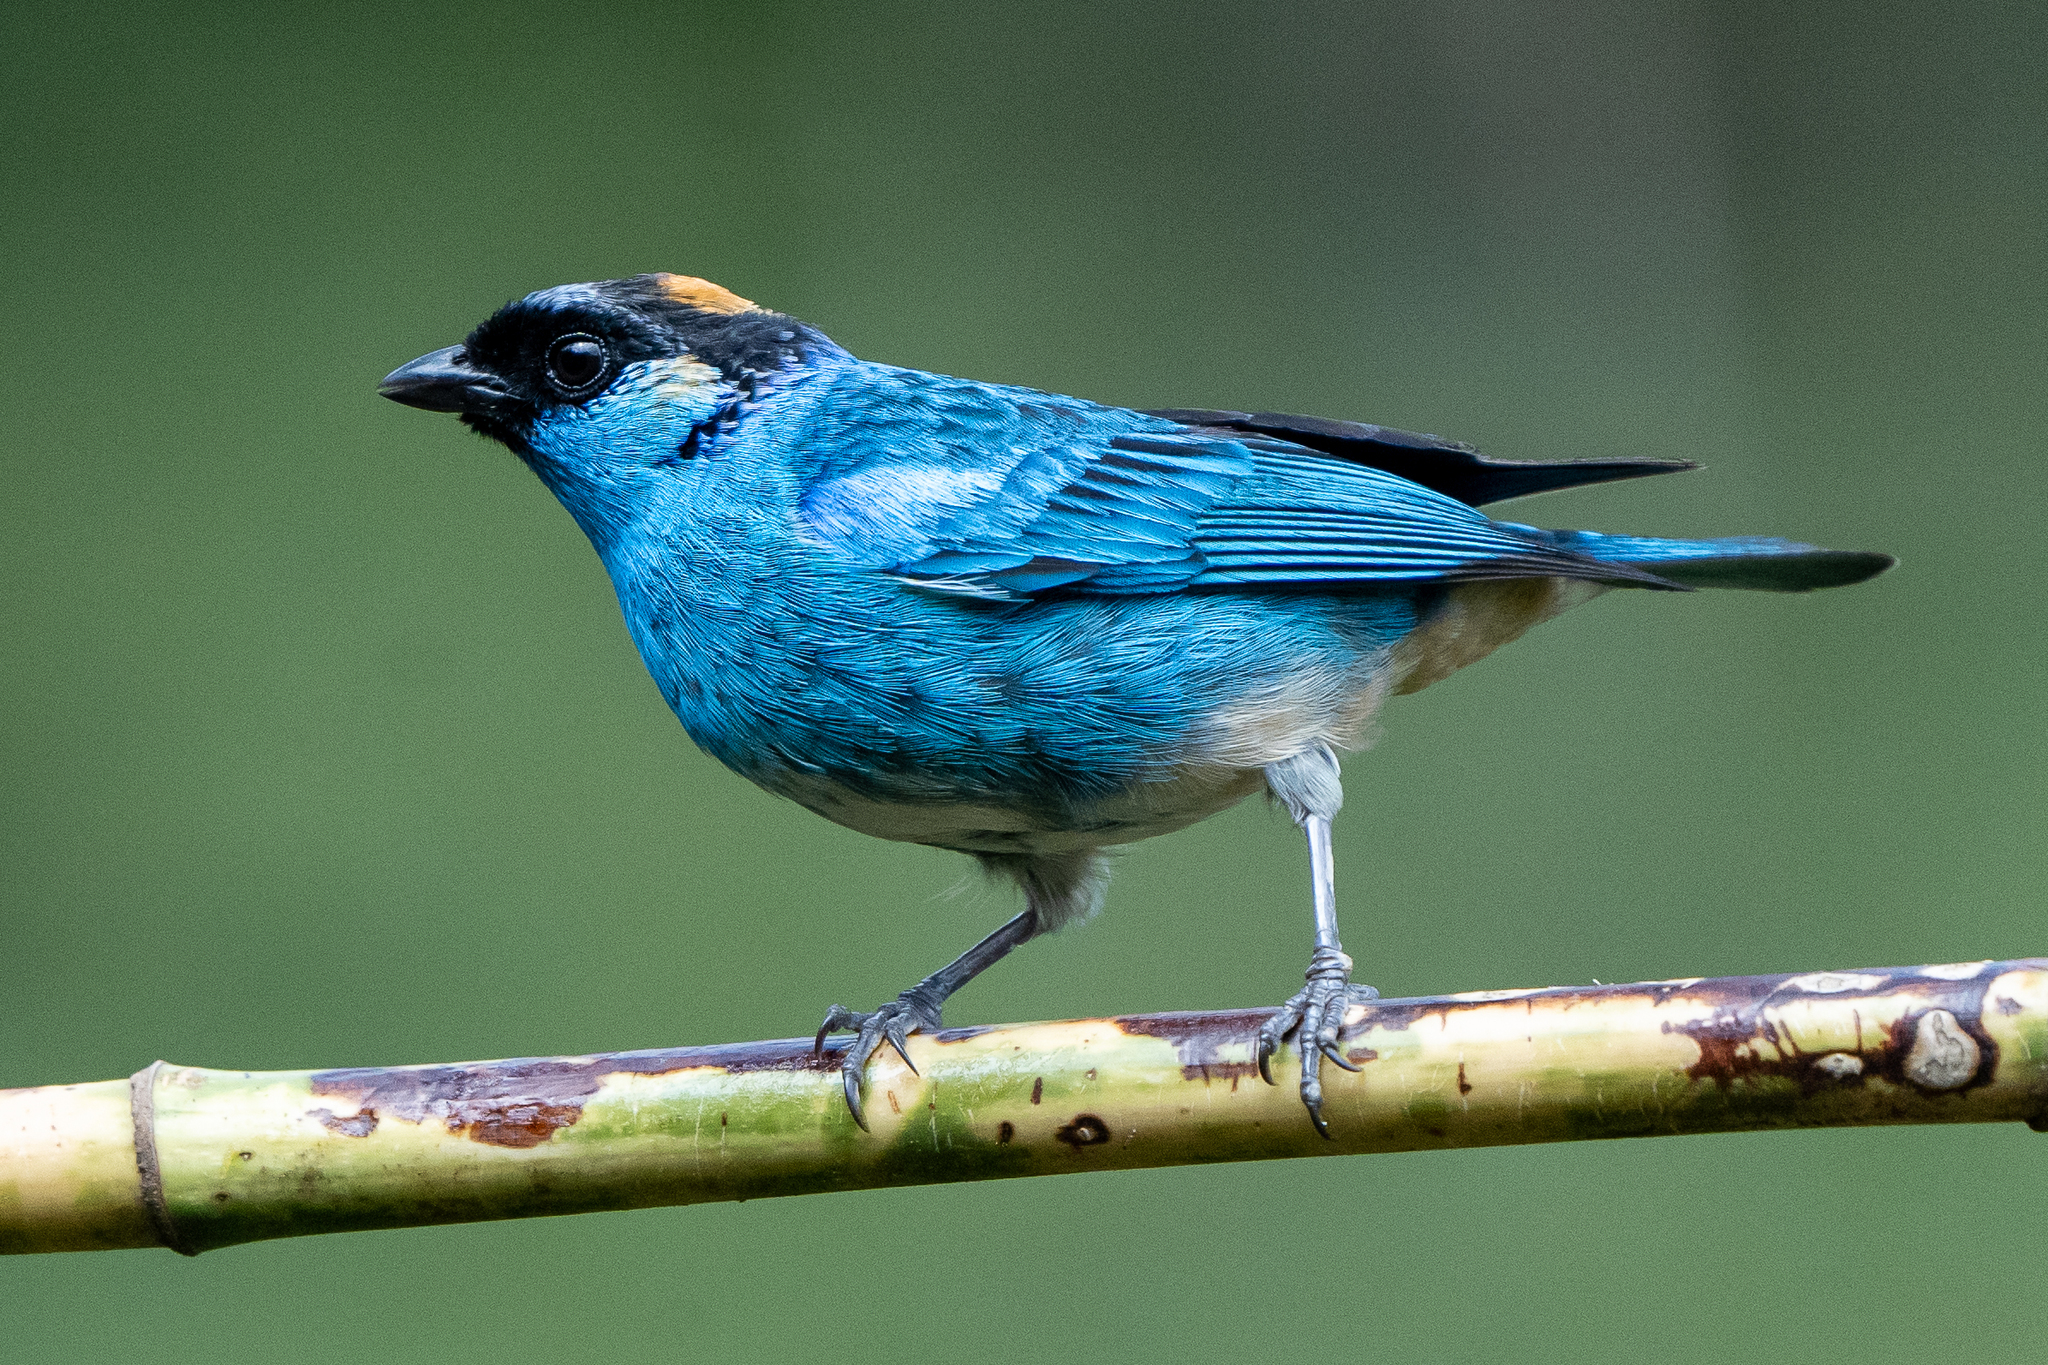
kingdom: Animalia
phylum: Chordata
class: Aves
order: Passeriformes
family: Thraupidae
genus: Chalcothraupis
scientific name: Chalcothraupis ruficervix
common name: Golden-naped tanager
